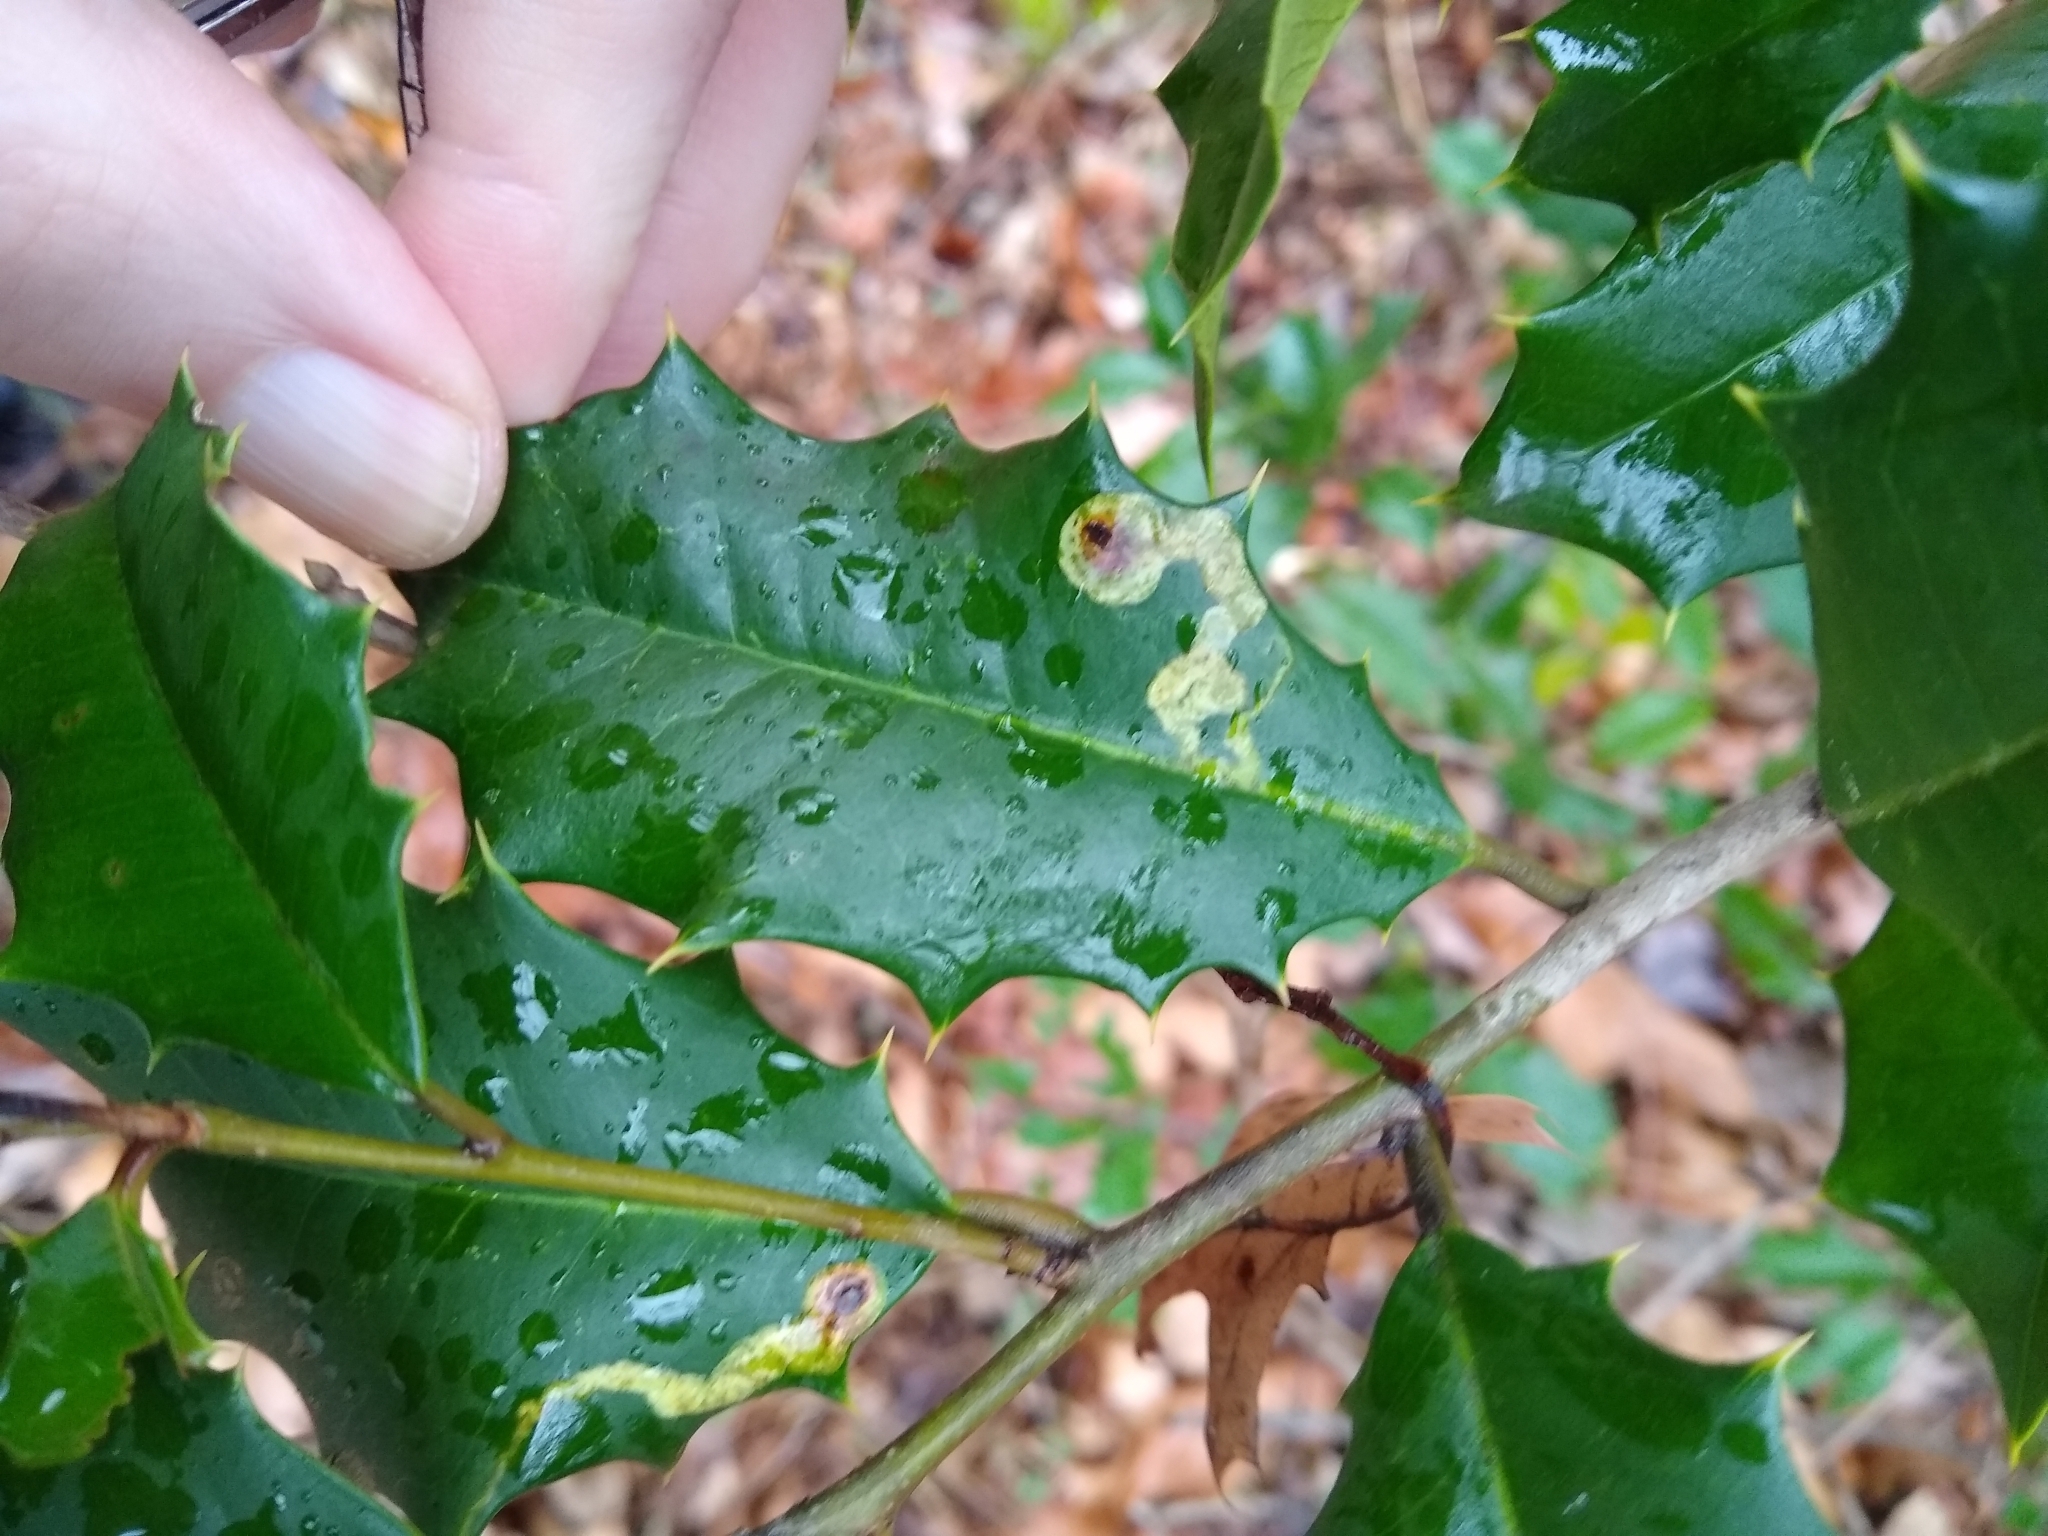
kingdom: Animalia
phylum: Arthropoda
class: Insecta
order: Diptera
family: Agromyzidae
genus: Phytomyza
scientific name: Phytomyza ilicicola
